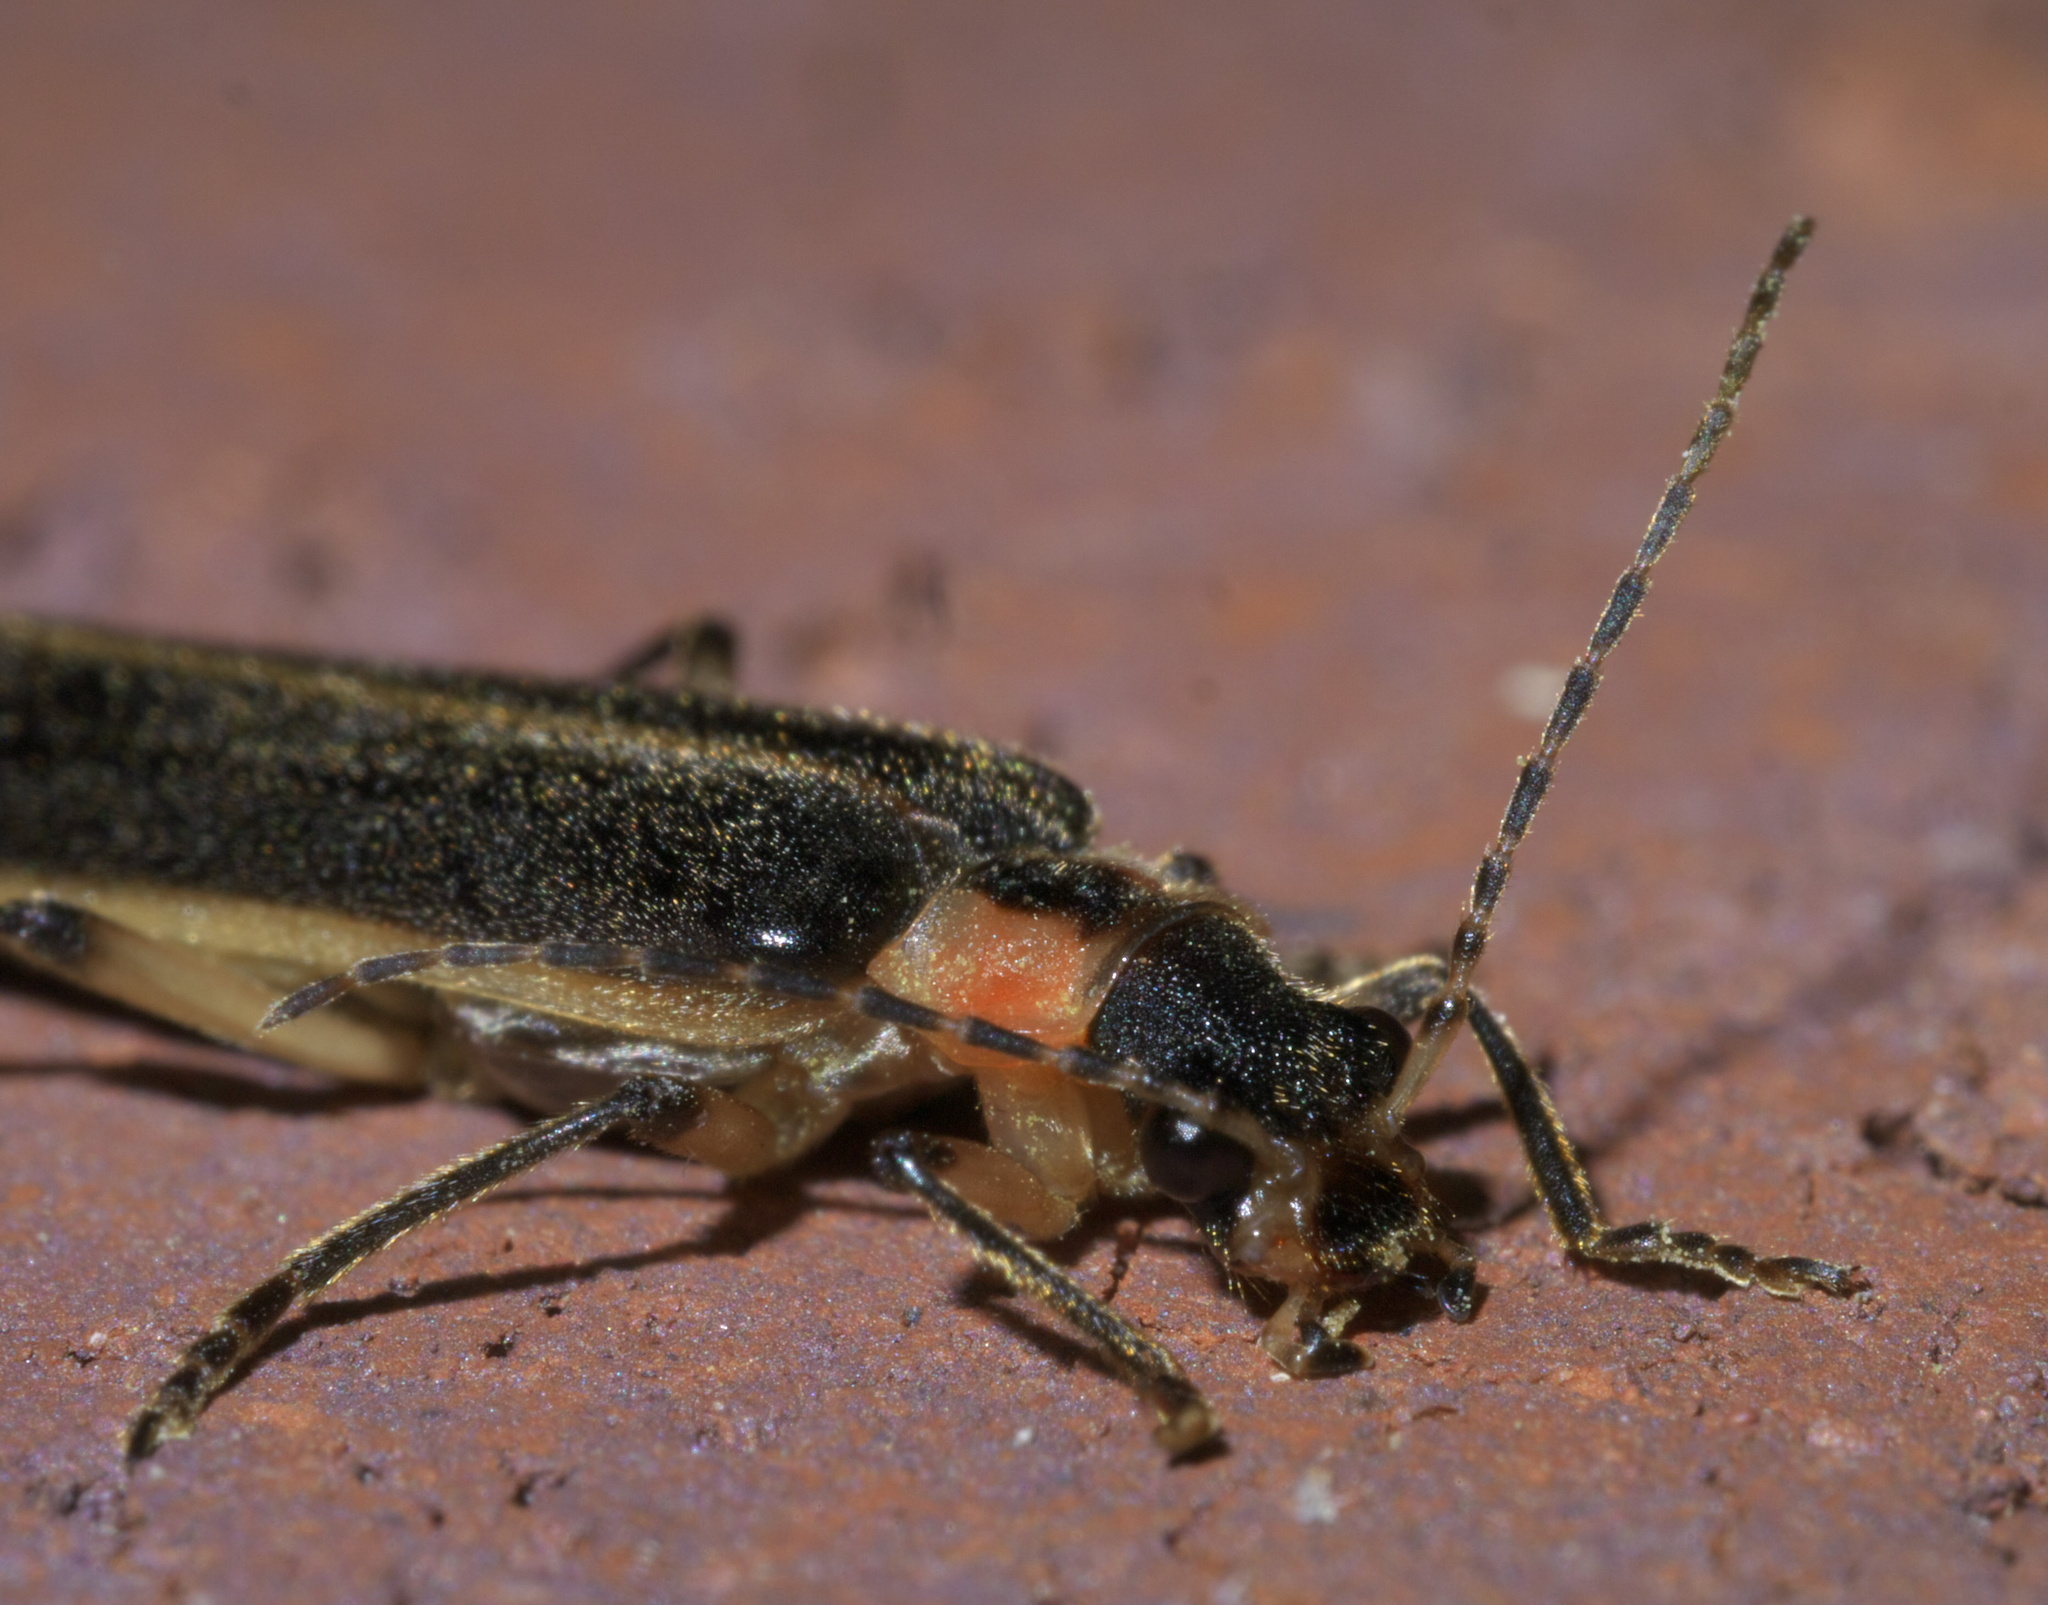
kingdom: Animalia
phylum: Arthropoda
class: Insecta
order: Coleoptera
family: Cantharidae
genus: Podabrus
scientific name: Podabrus basilaris
